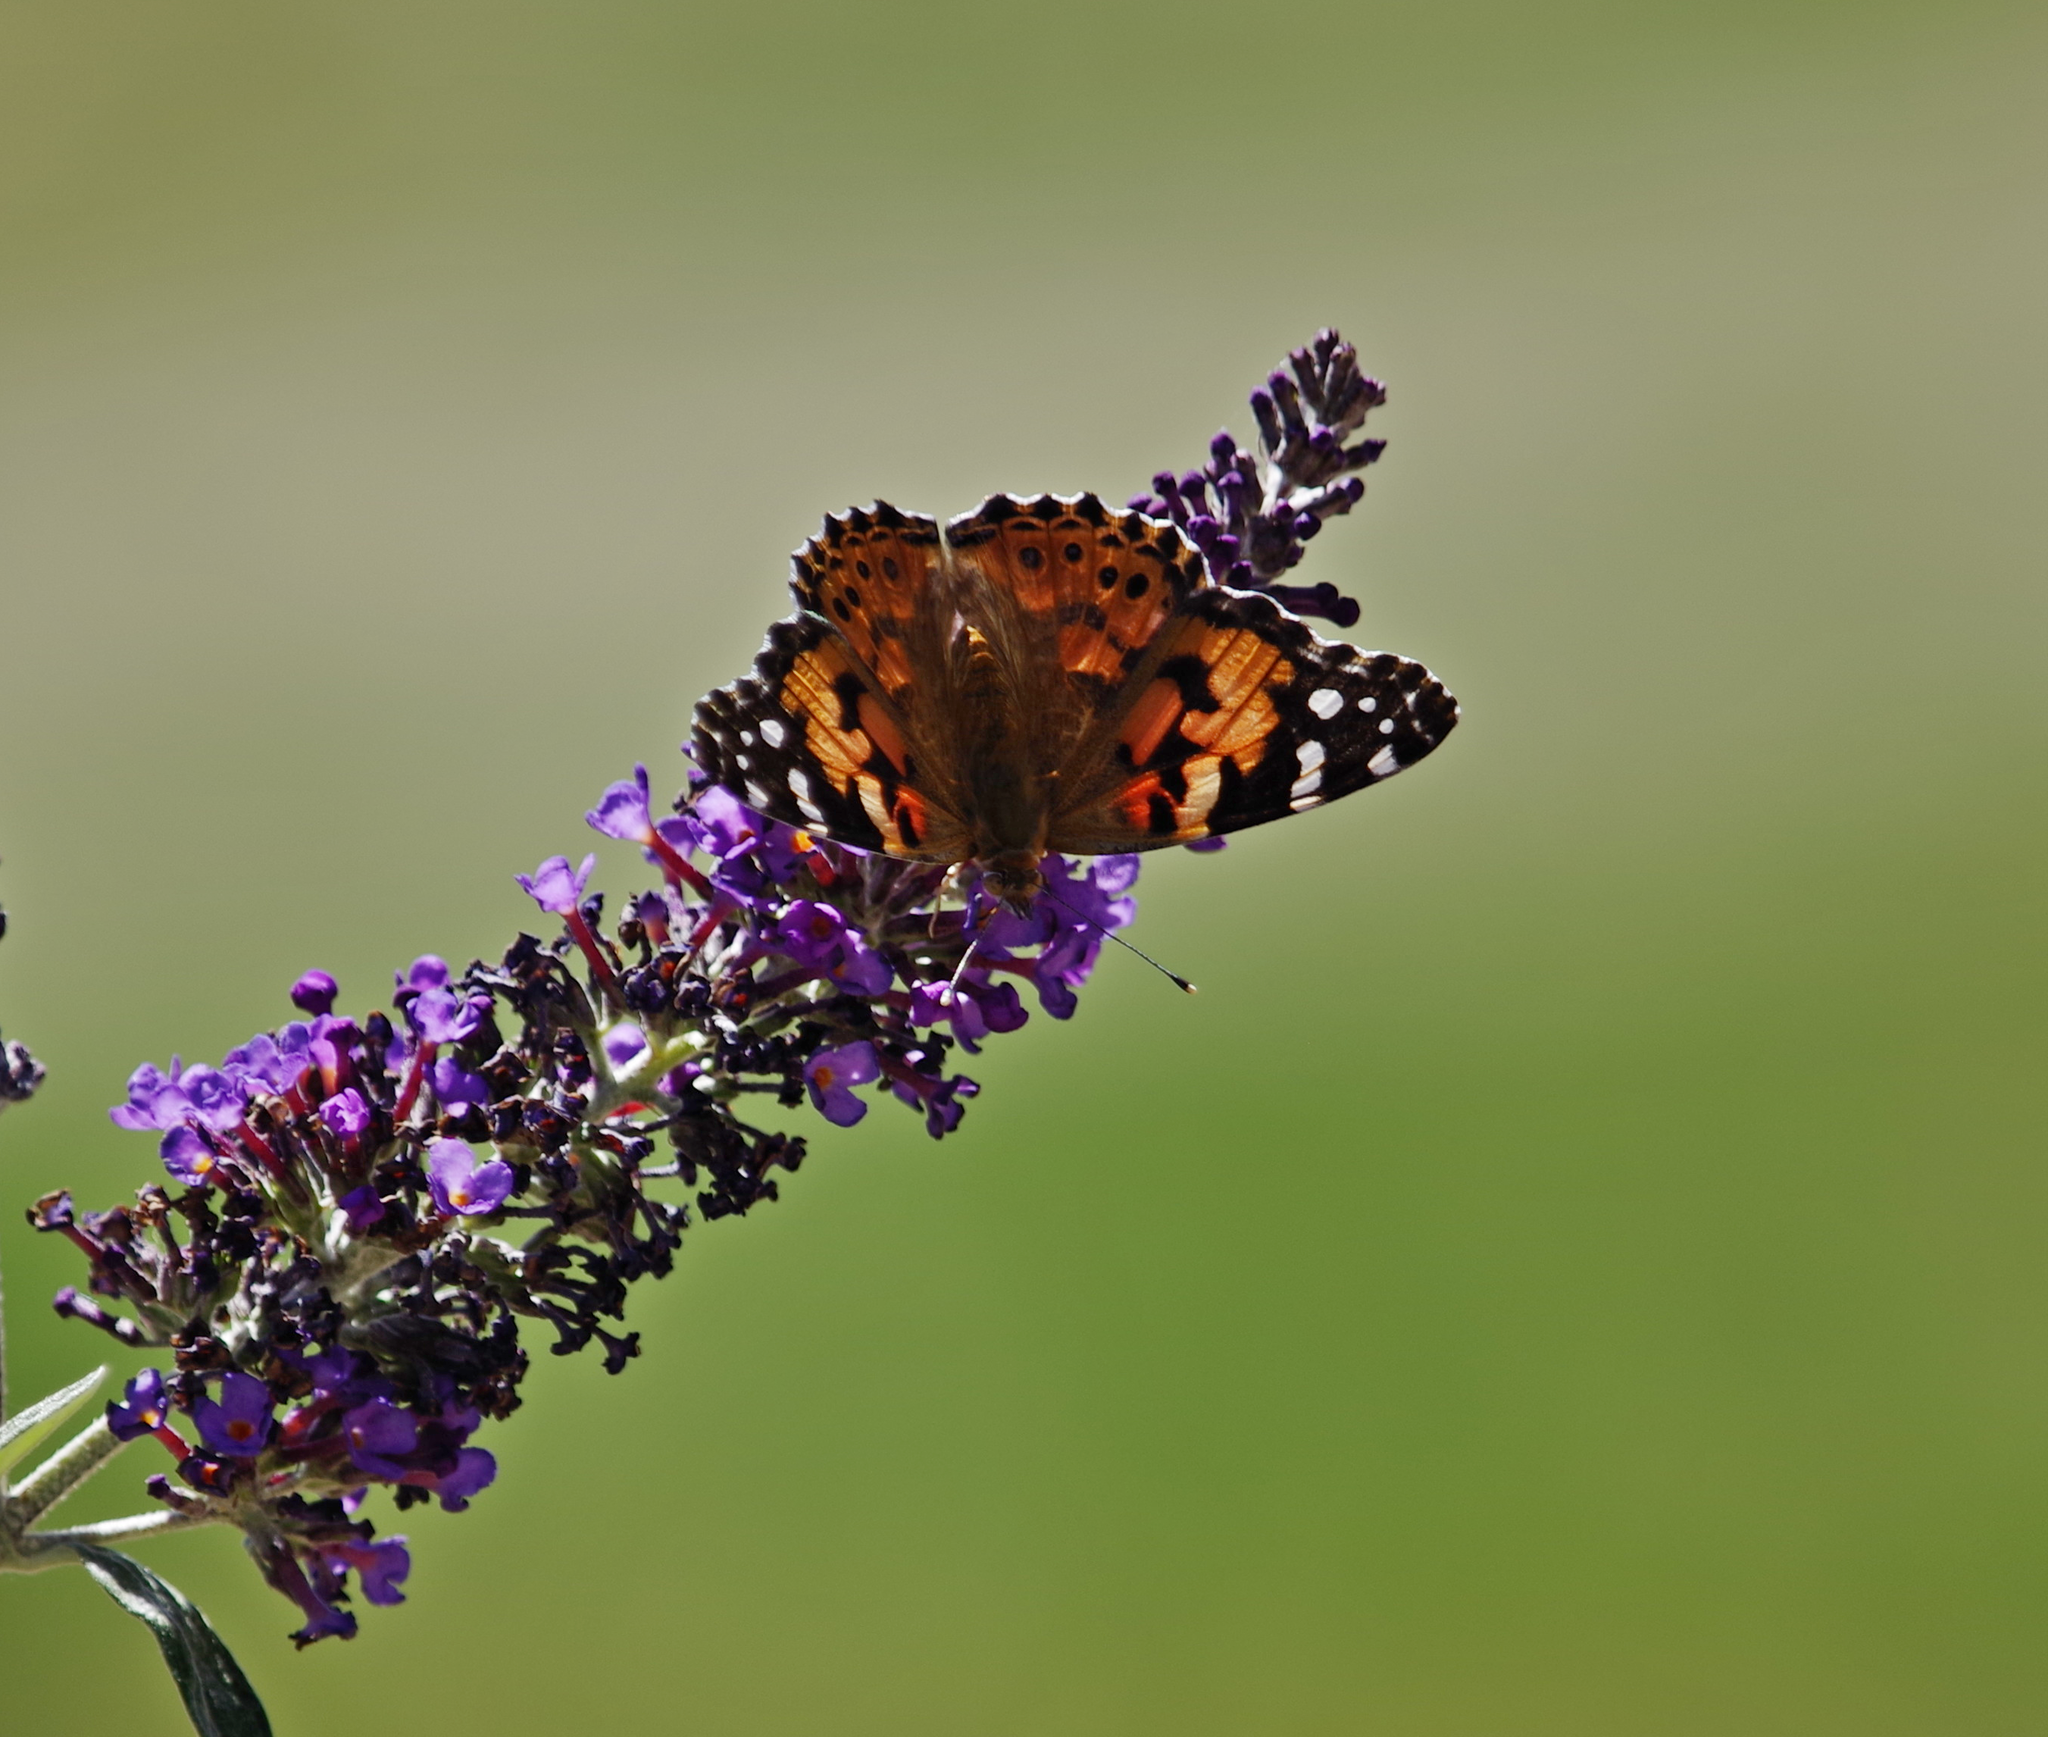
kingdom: Animalia
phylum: Arthropoda
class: Insecta
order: Lepidoptera
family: Nymphalidae
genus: Vanessa
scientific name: Vanessa cardui
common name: Painted lady
